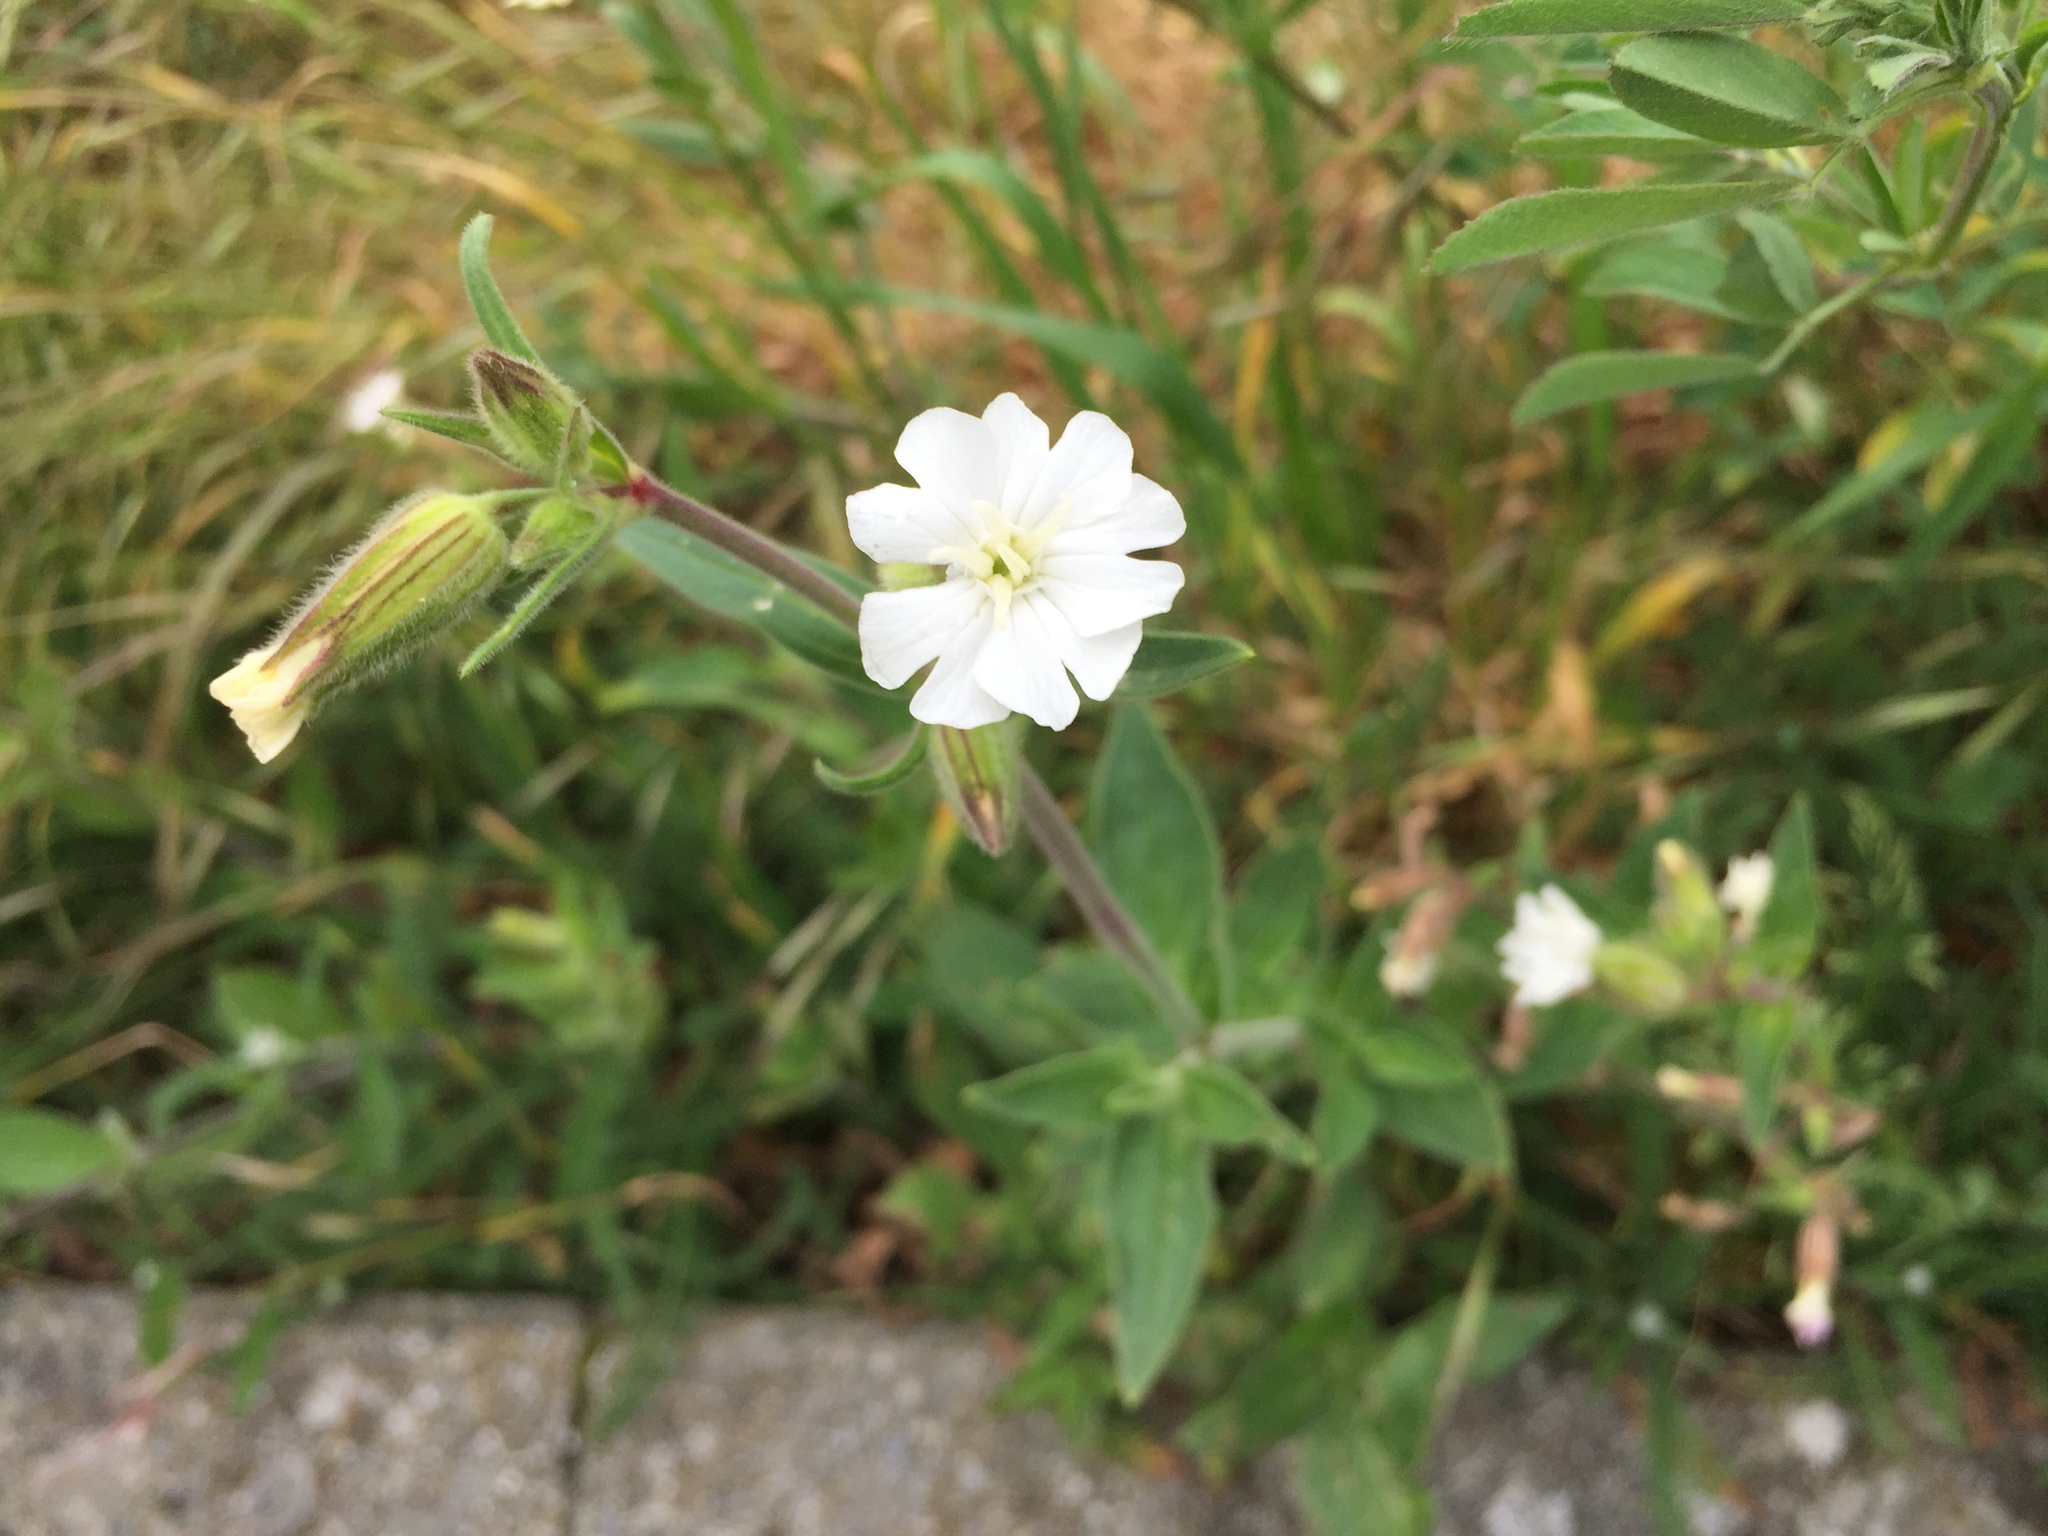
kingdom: Plantae
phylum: Tracheophyta
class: Magnoliopsida
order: Caryophyllales
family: Caryophyllaceae
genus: Silene
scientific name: Silene latifolia
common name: White campion
